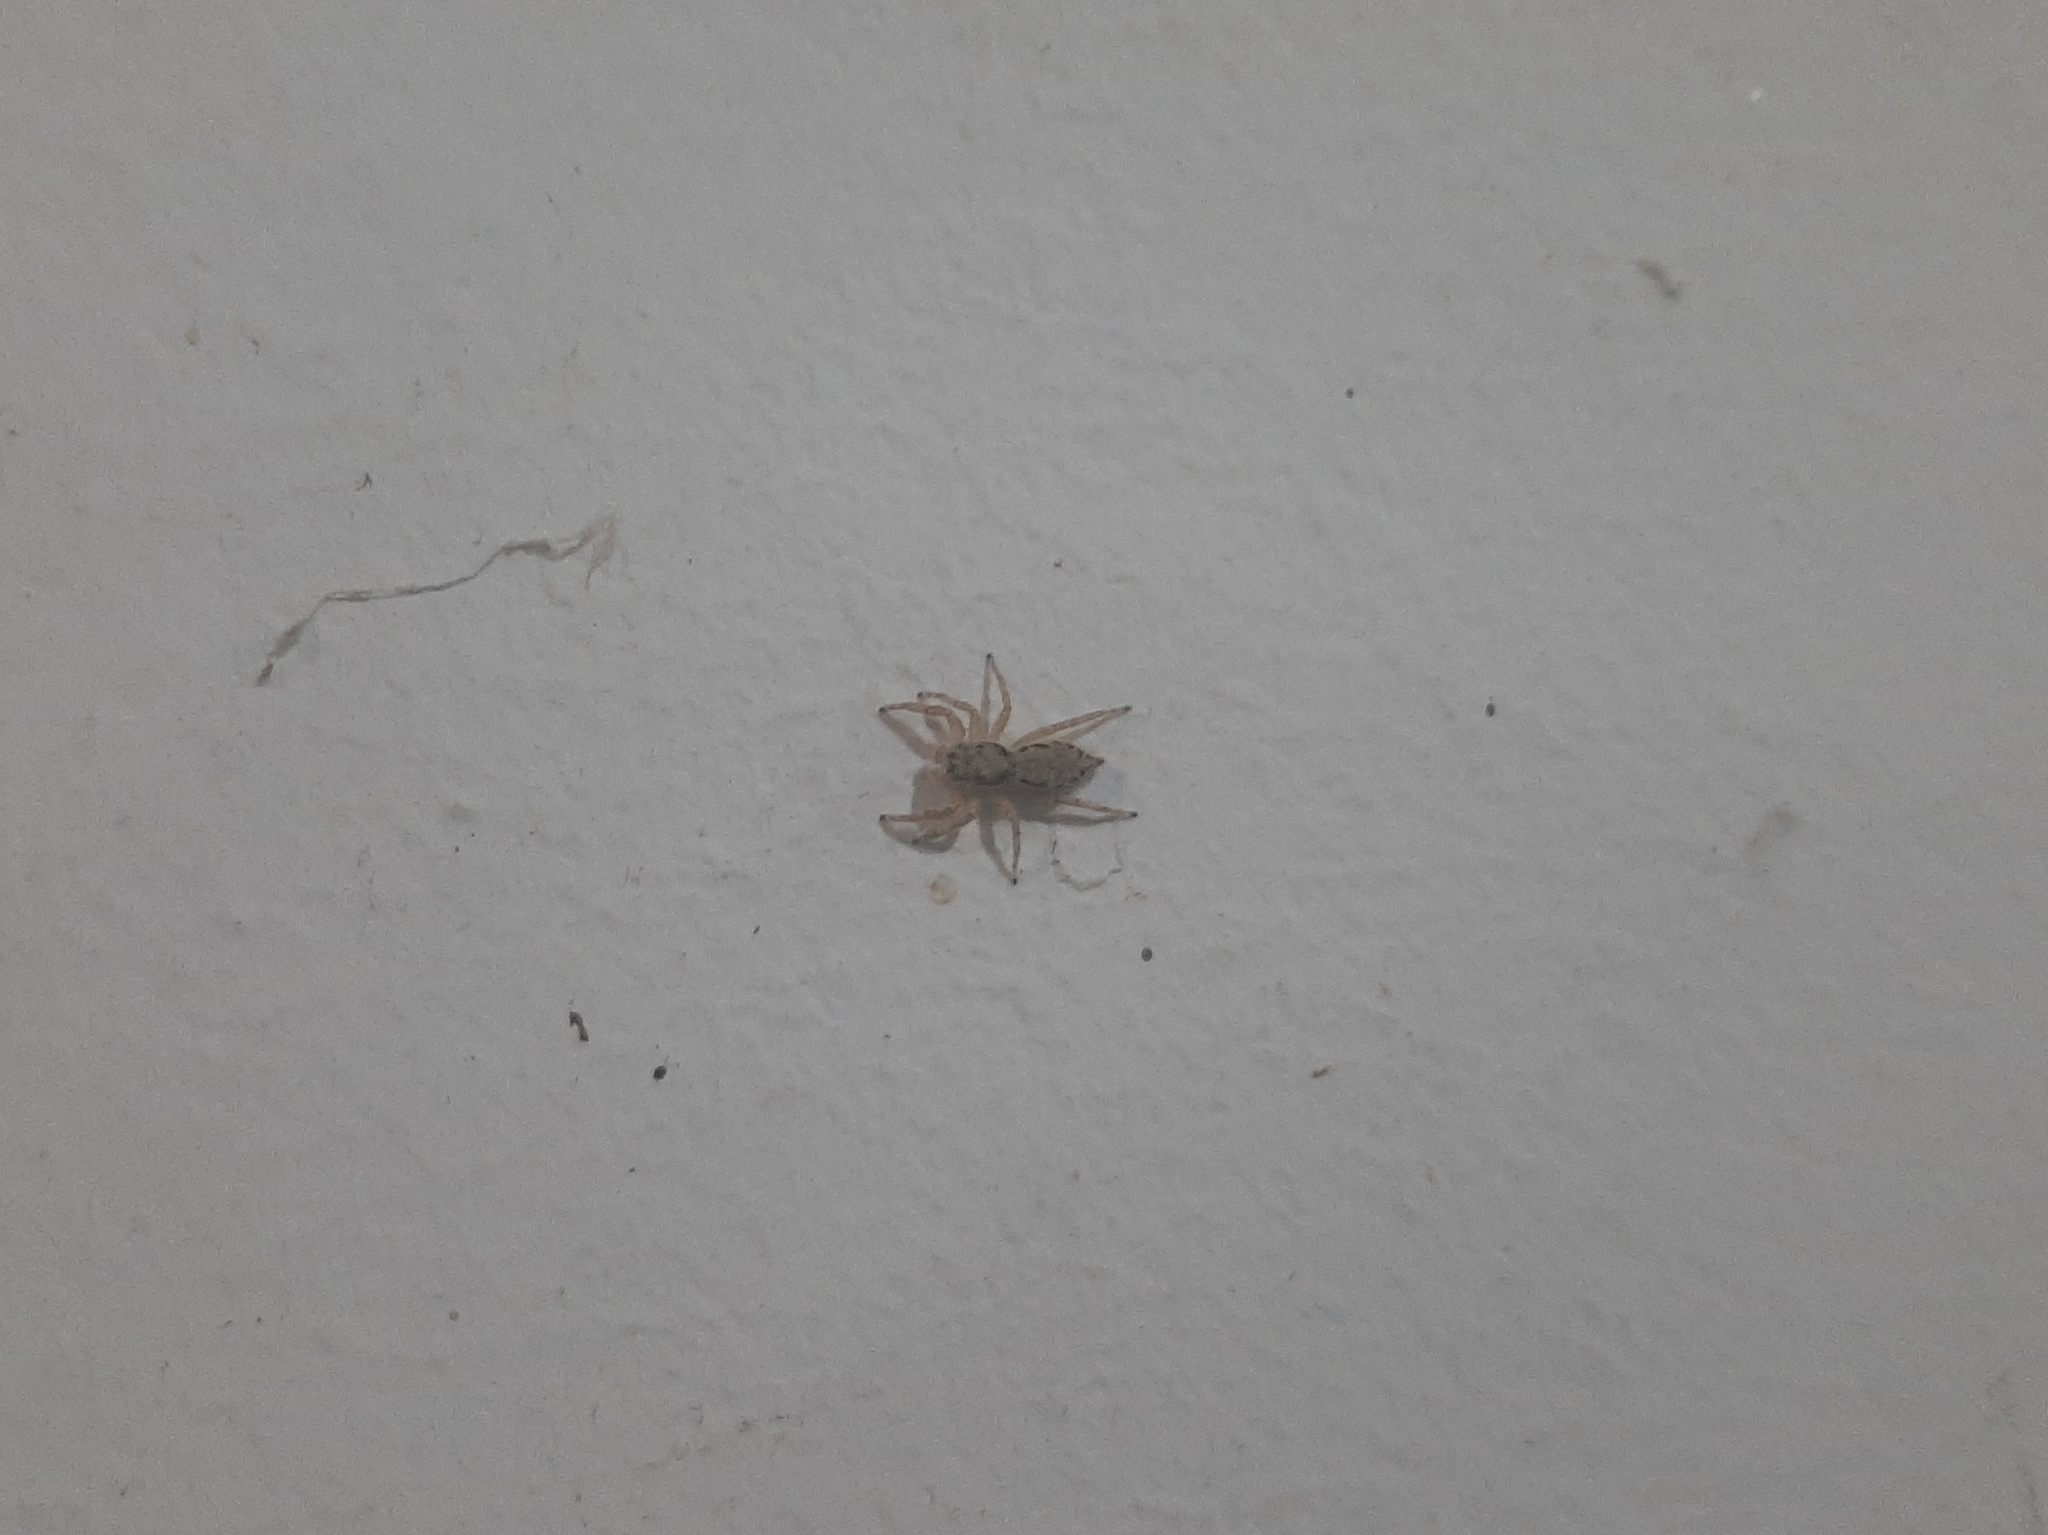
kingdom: Animalia
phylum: Arthropoda
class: Arachnida
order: Araneae
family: Salticidae
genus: Menemerus
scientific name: Menemerus bivittatus
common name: Gray wall jumper
